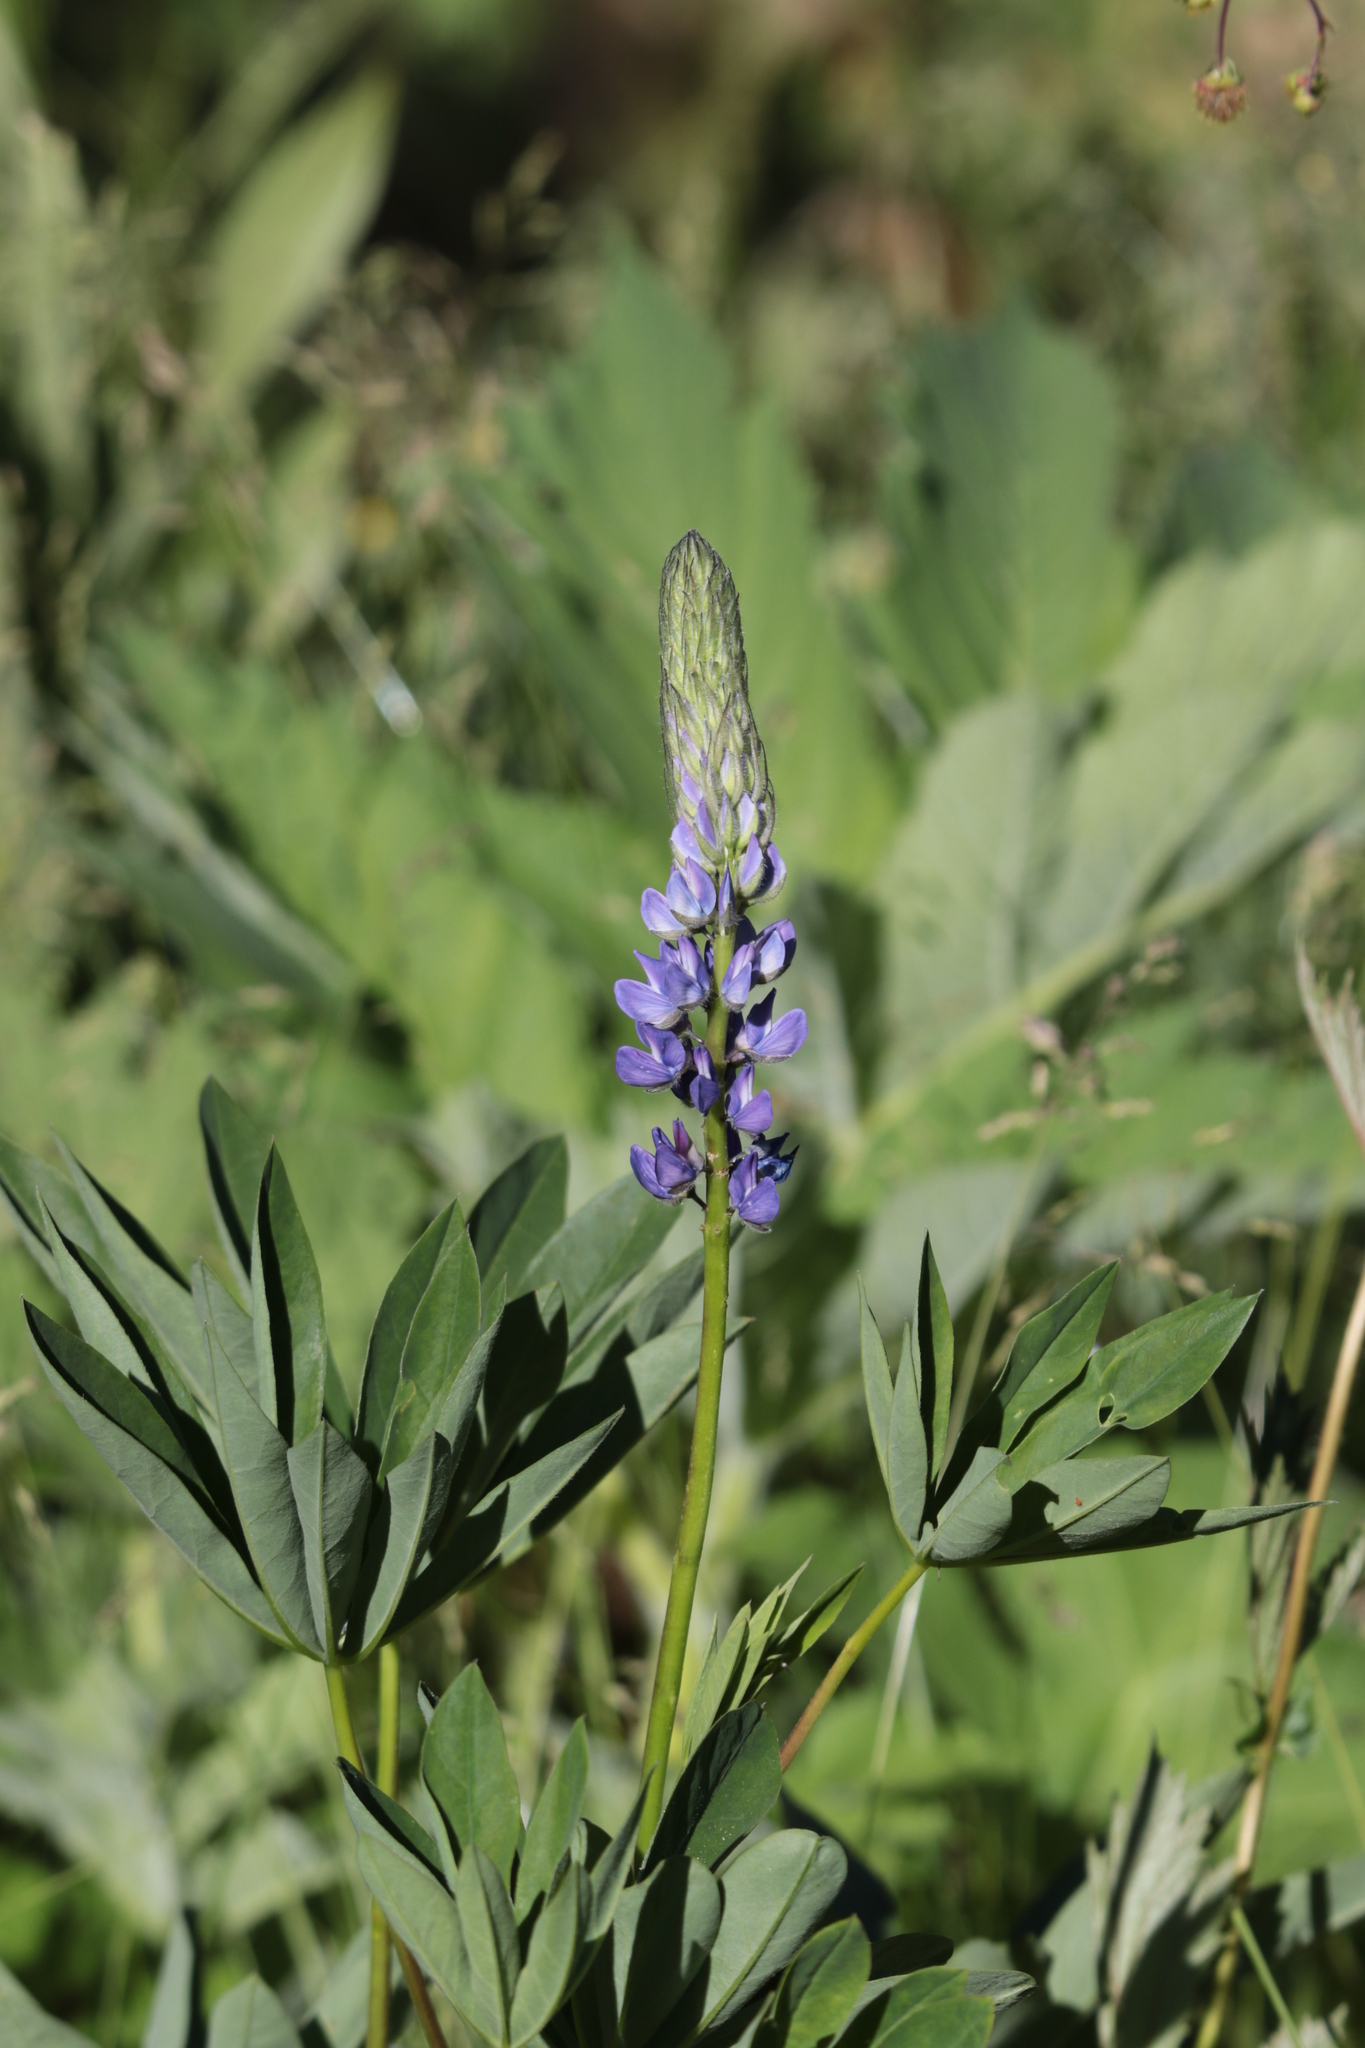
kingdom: Plantae
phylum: Tracheophyta
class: Magnoliopsida
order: Fabales
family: Fabaceae
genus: Lupinus
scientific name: Lupinus polyphyllus
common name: Garden lupin
